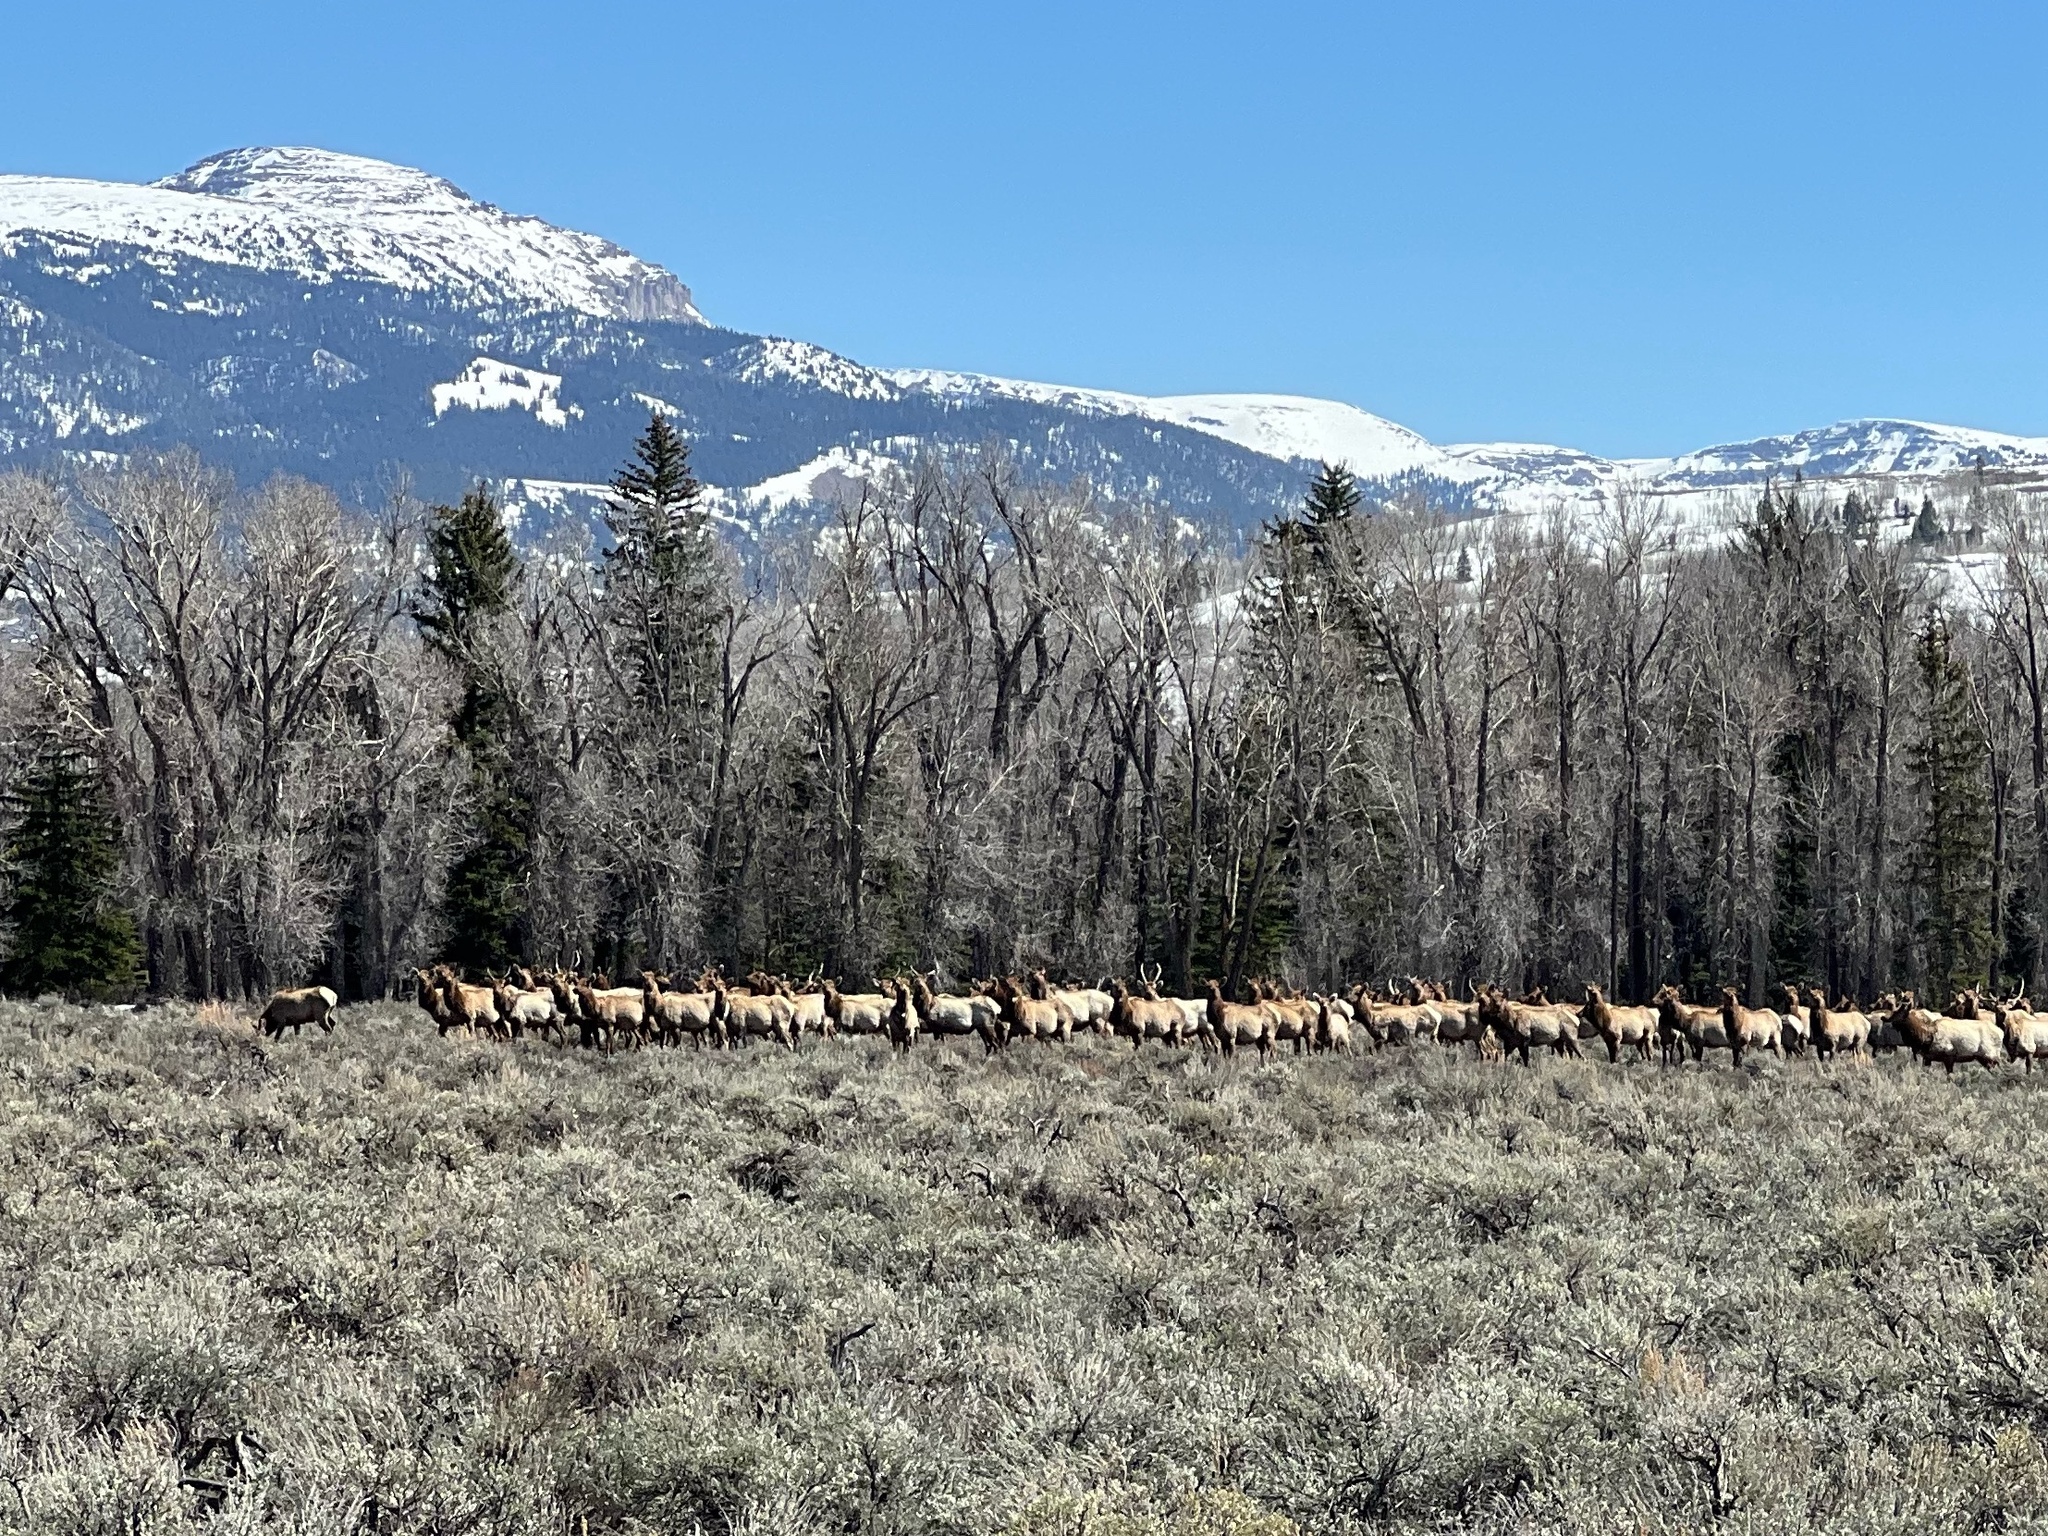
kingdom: Animalia
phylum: Chordata
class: Mammalia
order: Artiodactyla
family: Cervidae
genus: Cervus
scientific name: Cervus elaphus
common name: Red deer
